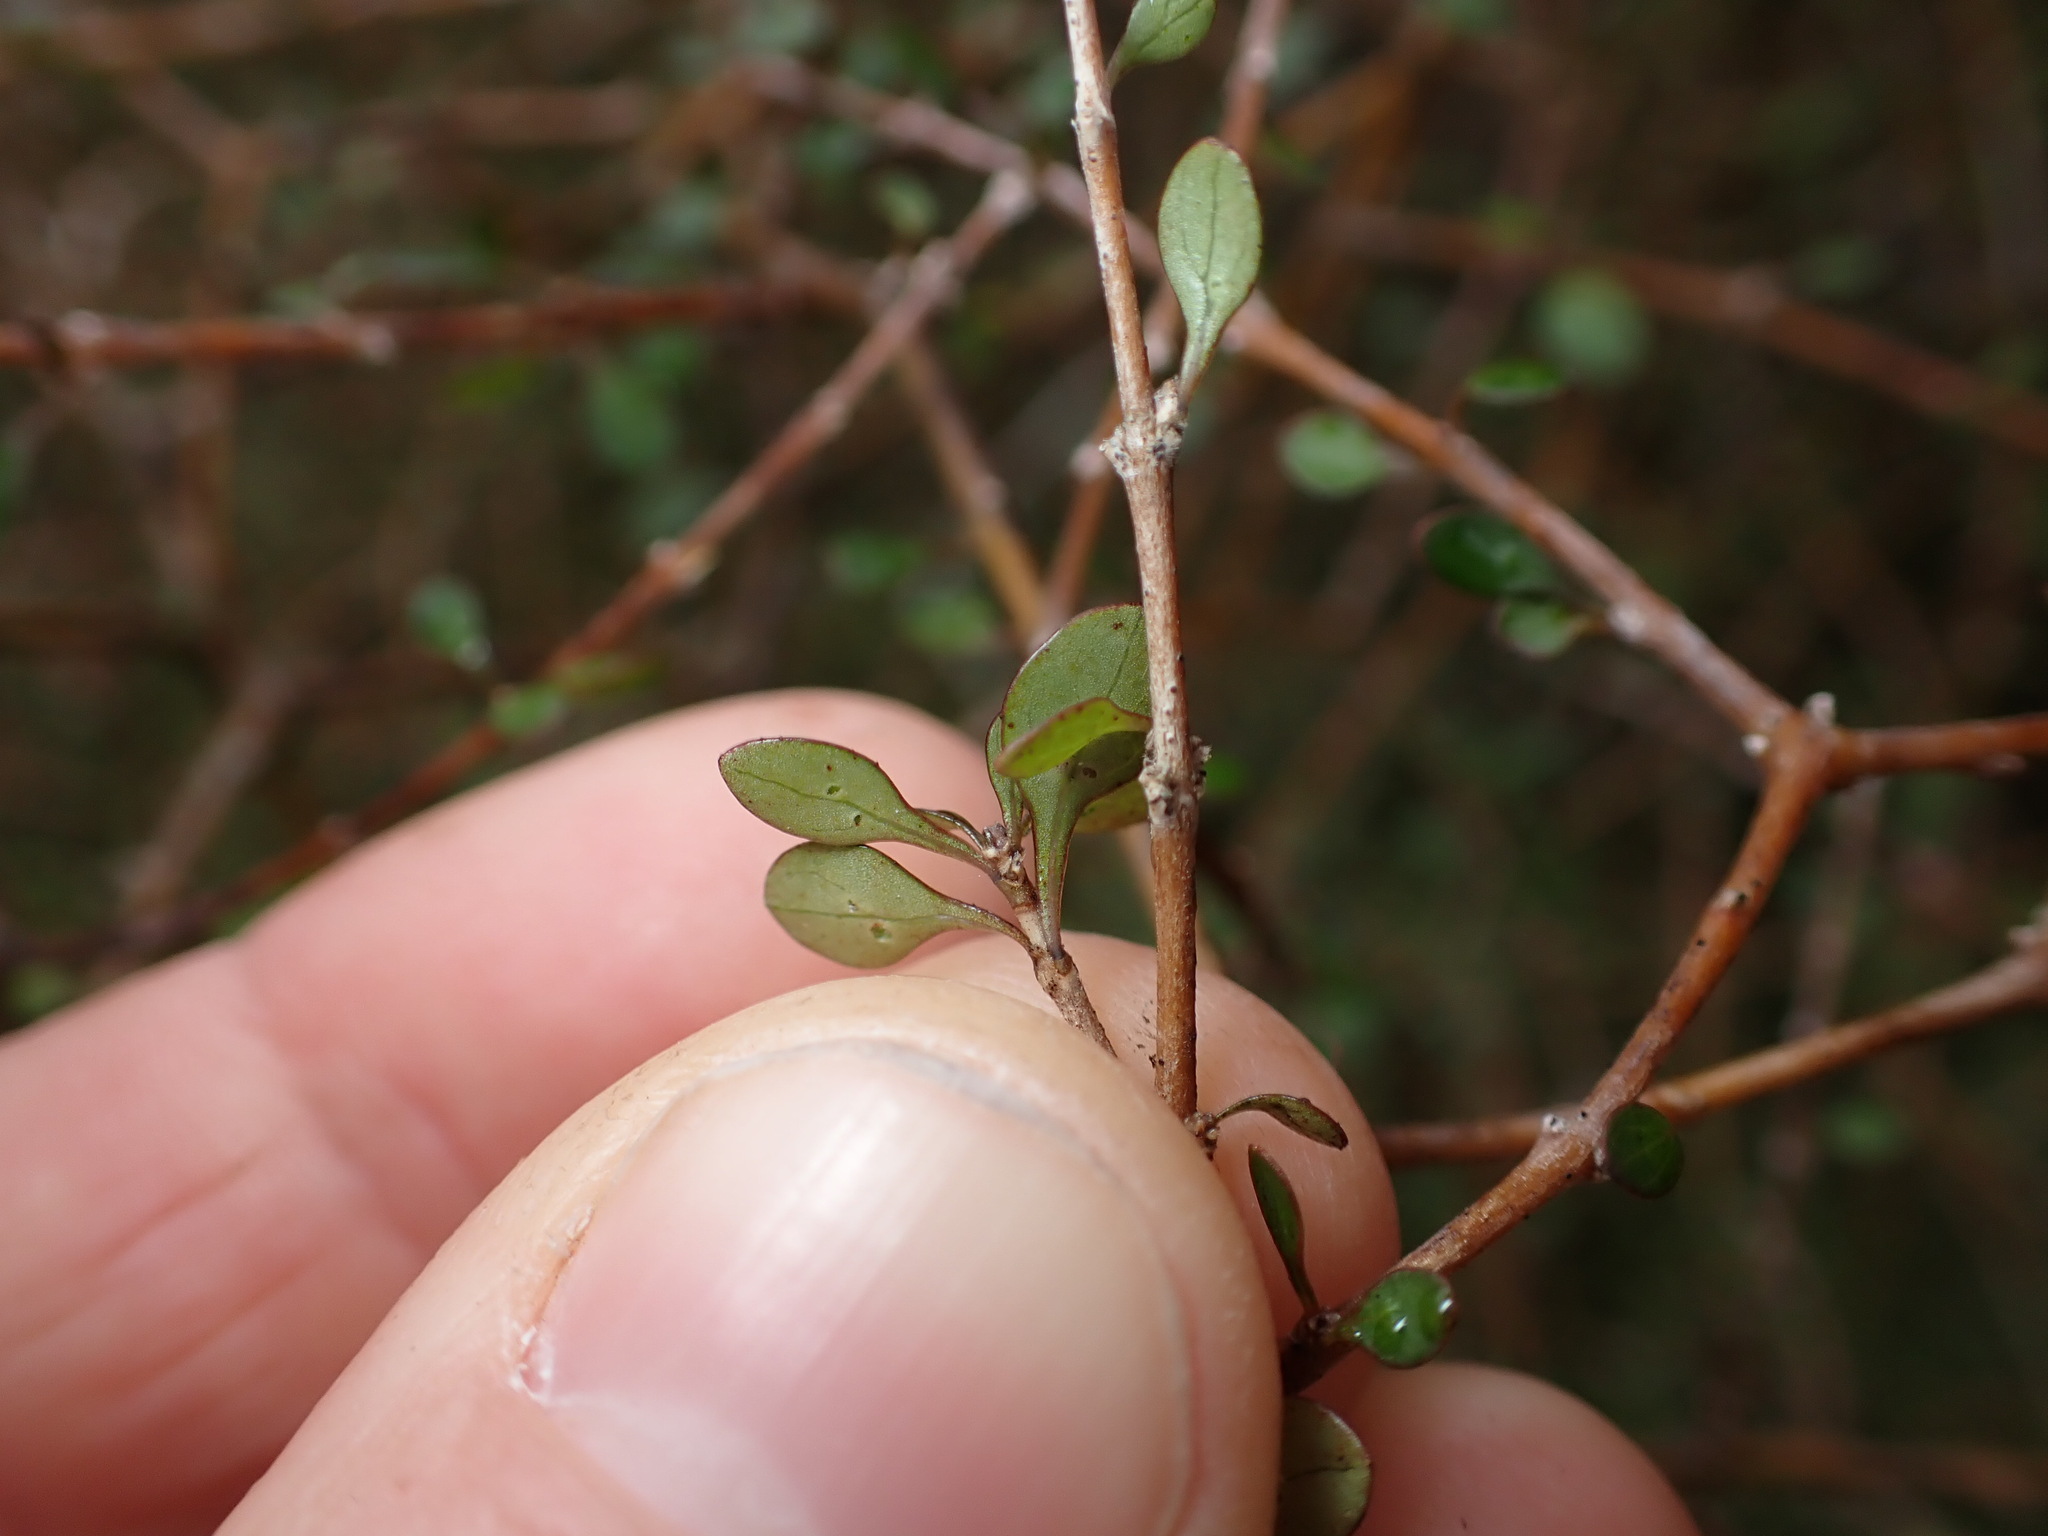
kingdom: Plantae
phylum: Tracheophyta
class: Magnoliopsida
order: Gentianales
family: Rubiaceae
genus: Coprosma
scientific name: Coprosma virescens
